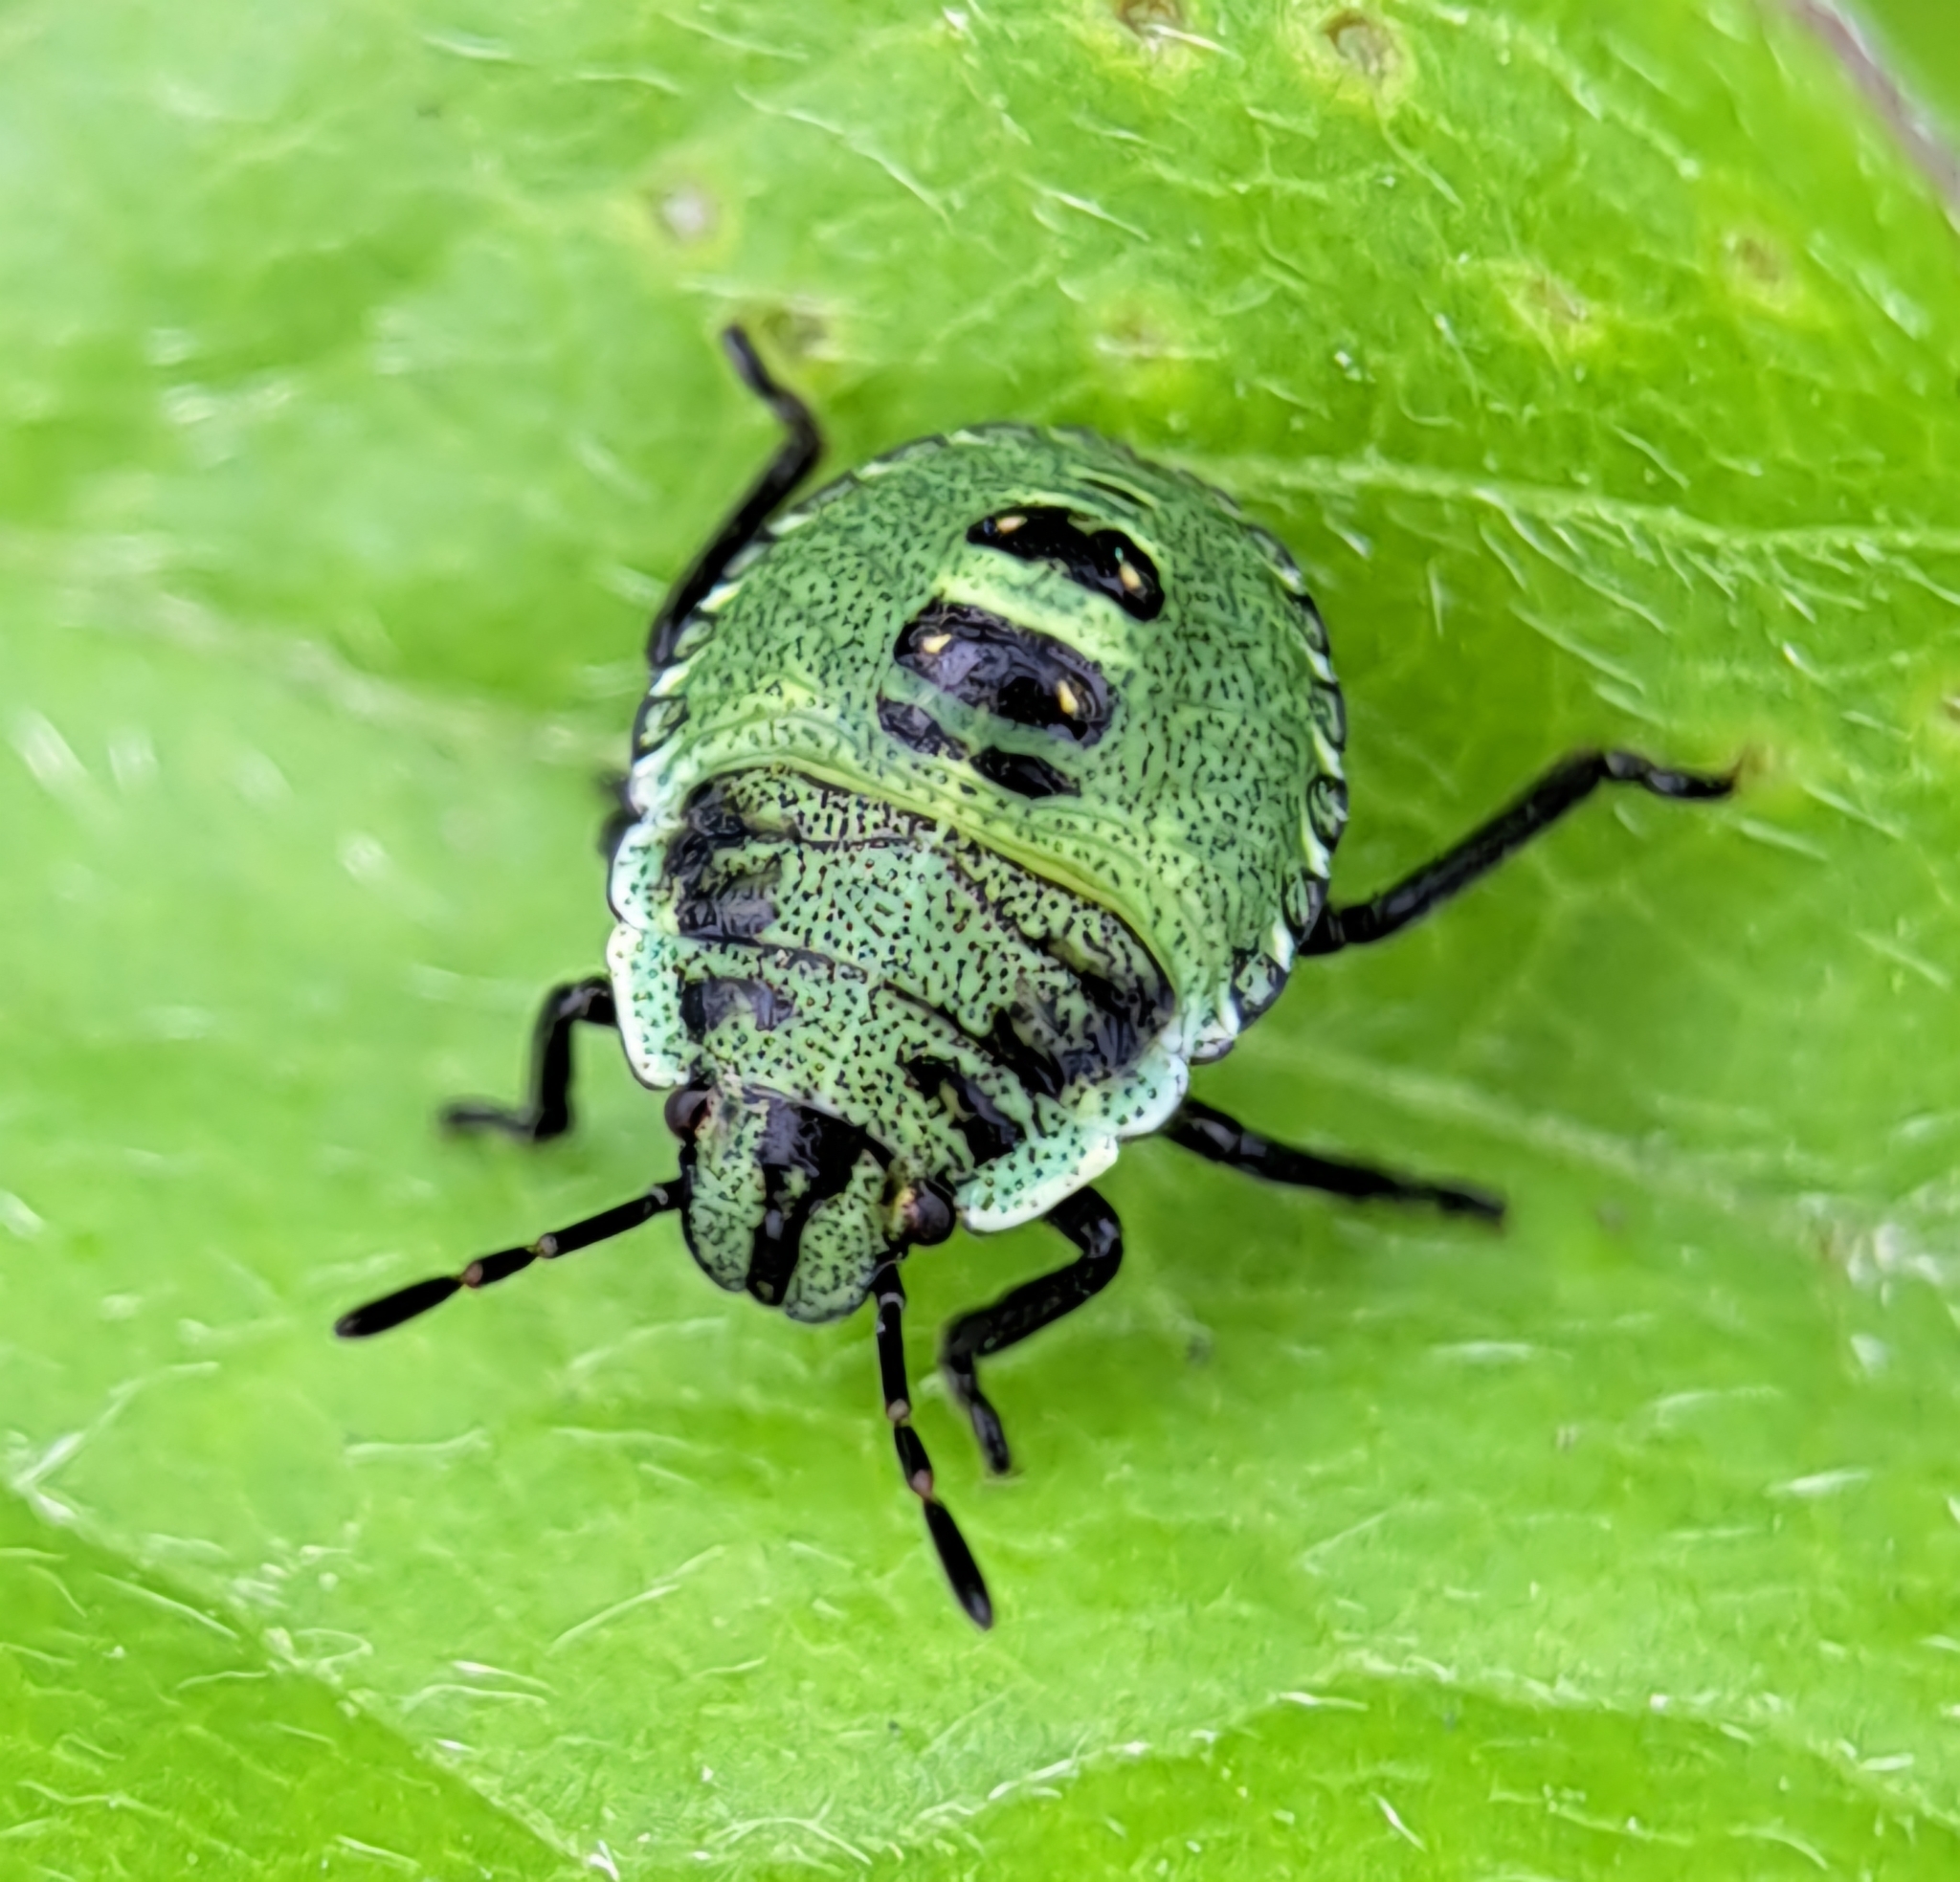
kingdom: Animalia
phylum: Arthropoda
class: Insecta
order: Hemiptera
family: Pentatomidae
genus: Palomena
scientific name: Palomena prasina
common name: Green shieldbug
